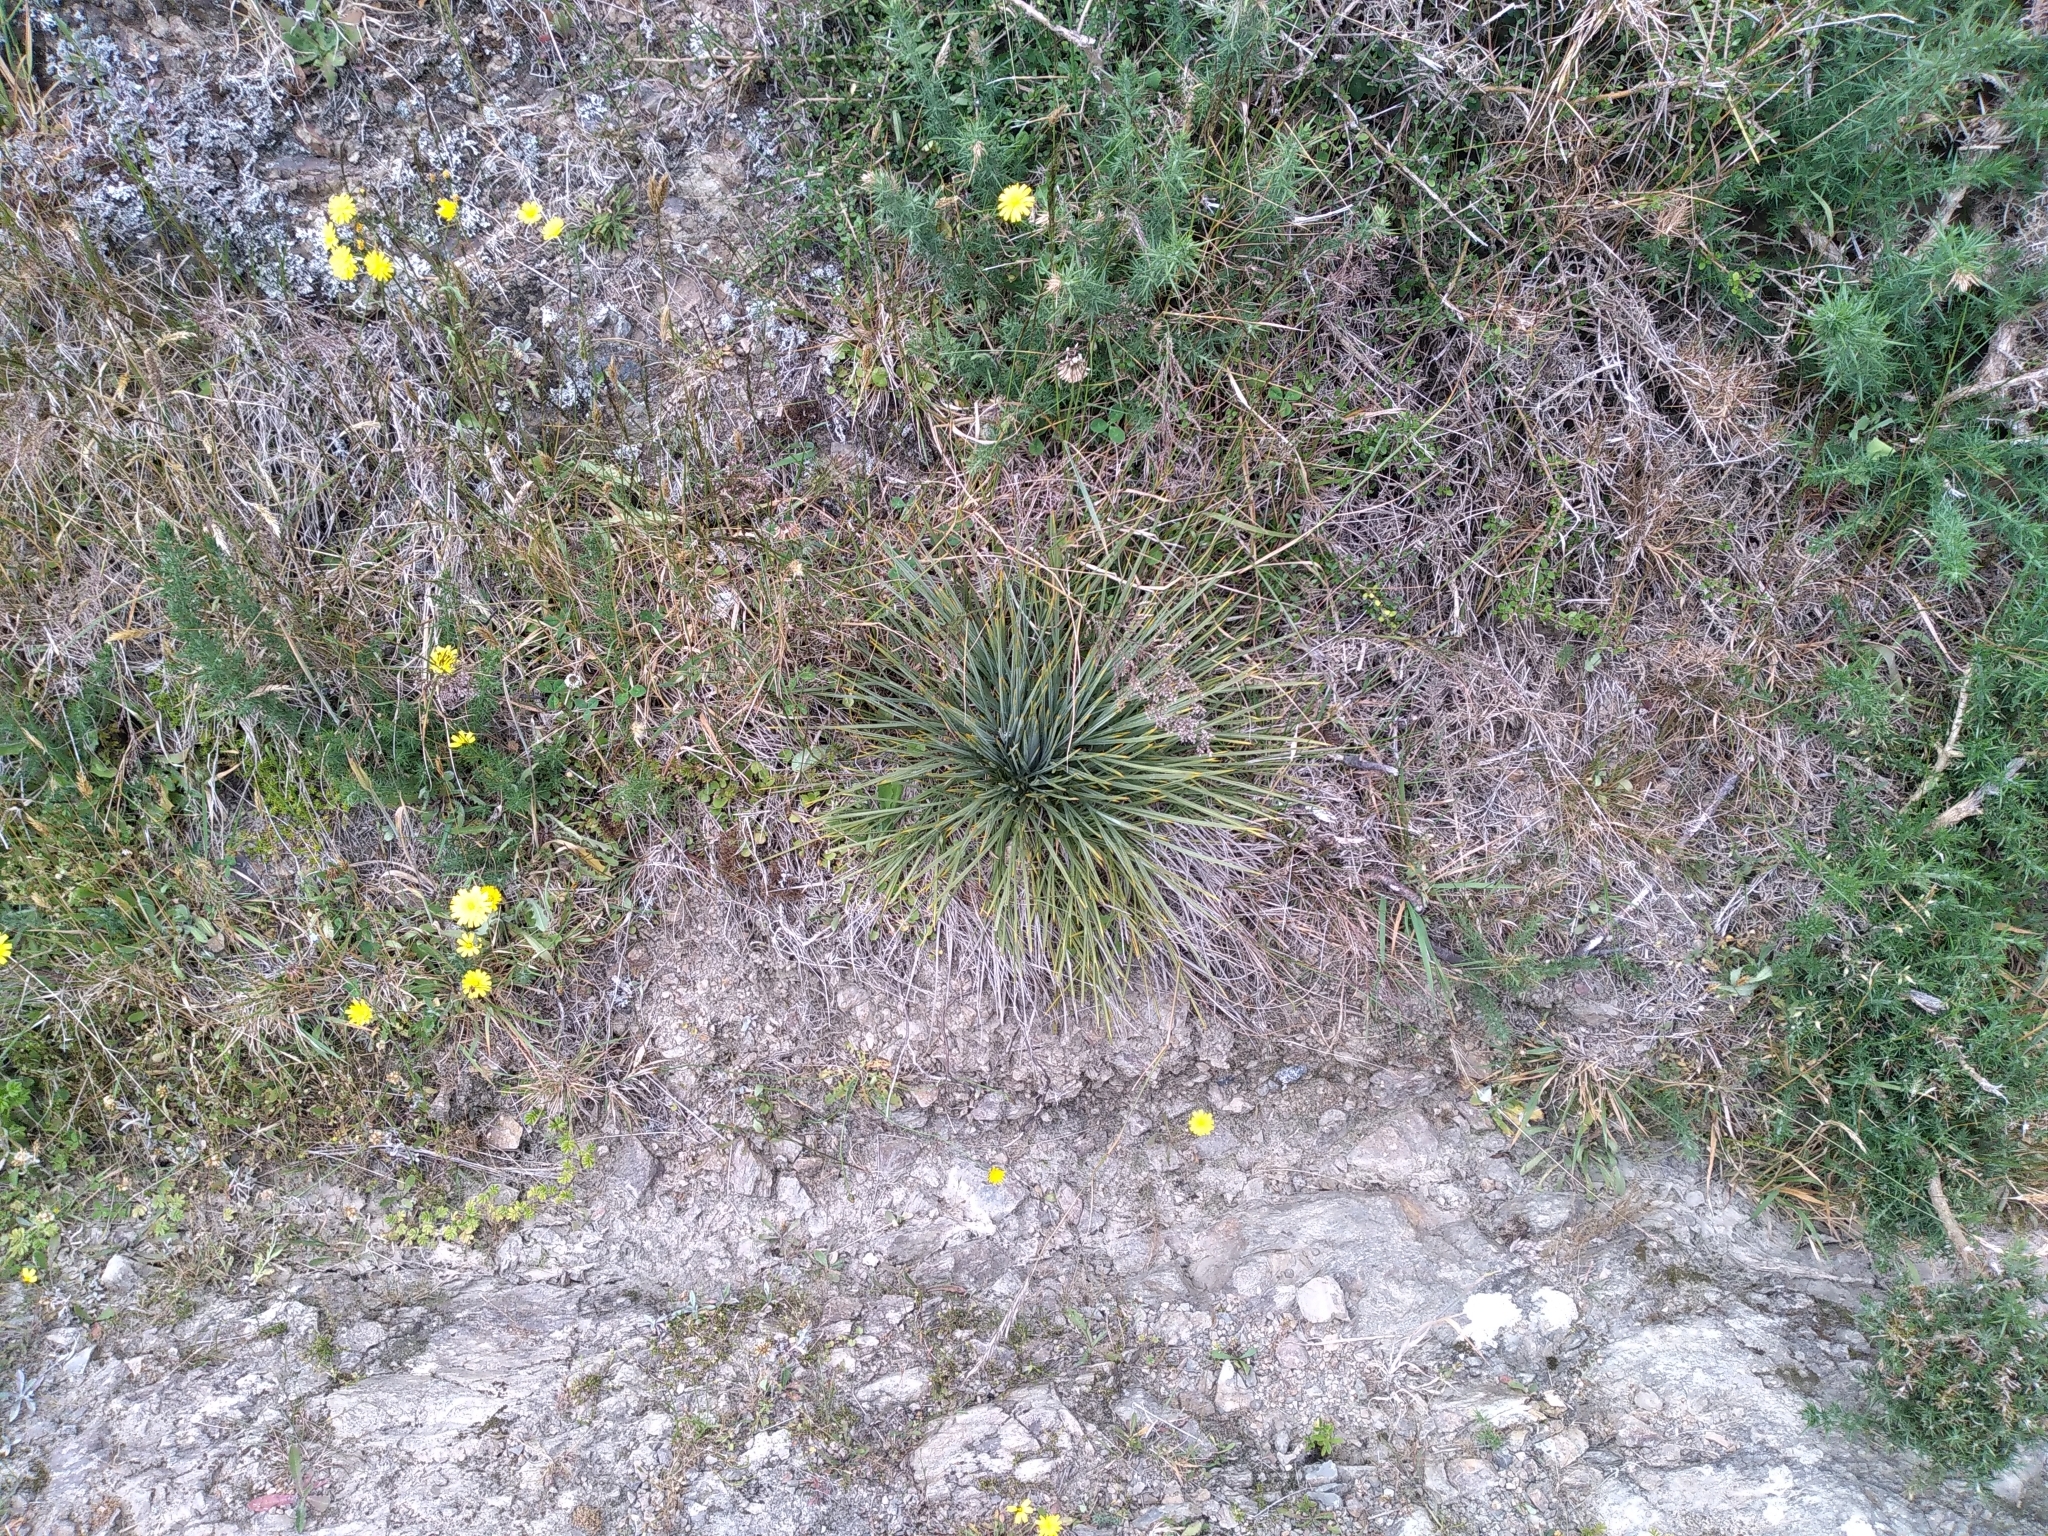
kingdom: Plantae
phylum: Tracheophyta
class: Magnoliopsida
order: Apiales
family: Apiaceae
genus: Aciphylla
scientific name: Aciphylla squarrosa
